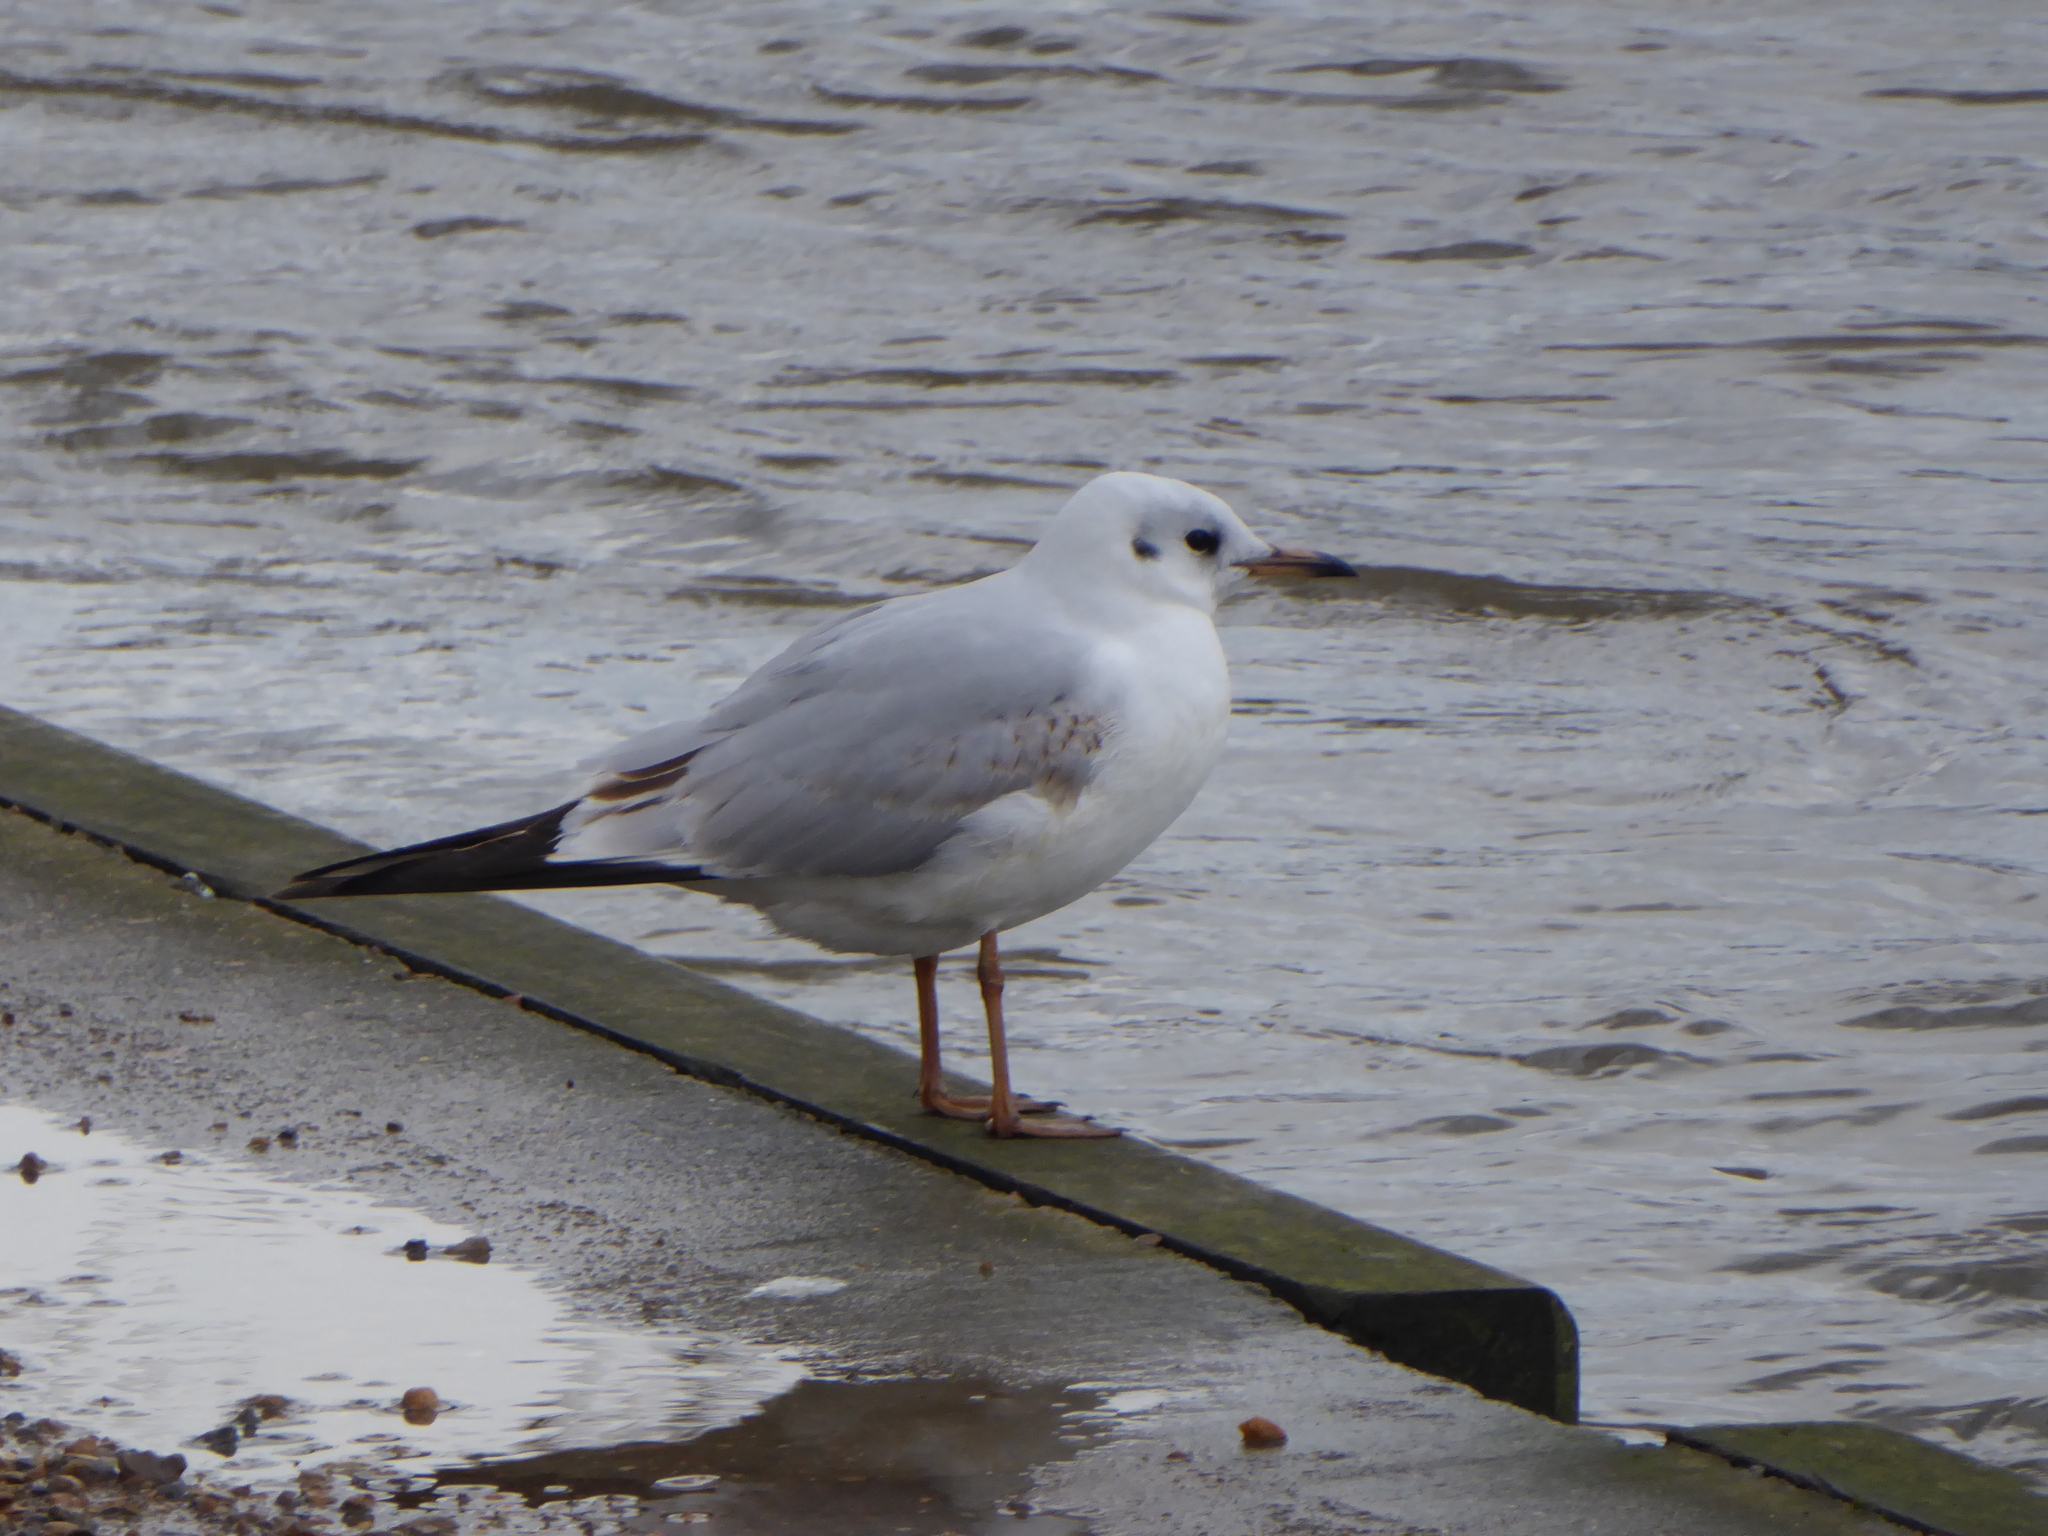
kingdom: Animalia
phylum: Chordata
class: Aves
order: Charadriiformes
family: Laridae
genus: Chroicocephalus
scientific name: Chroicocephalus ridibundus
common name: Black-headed gull
